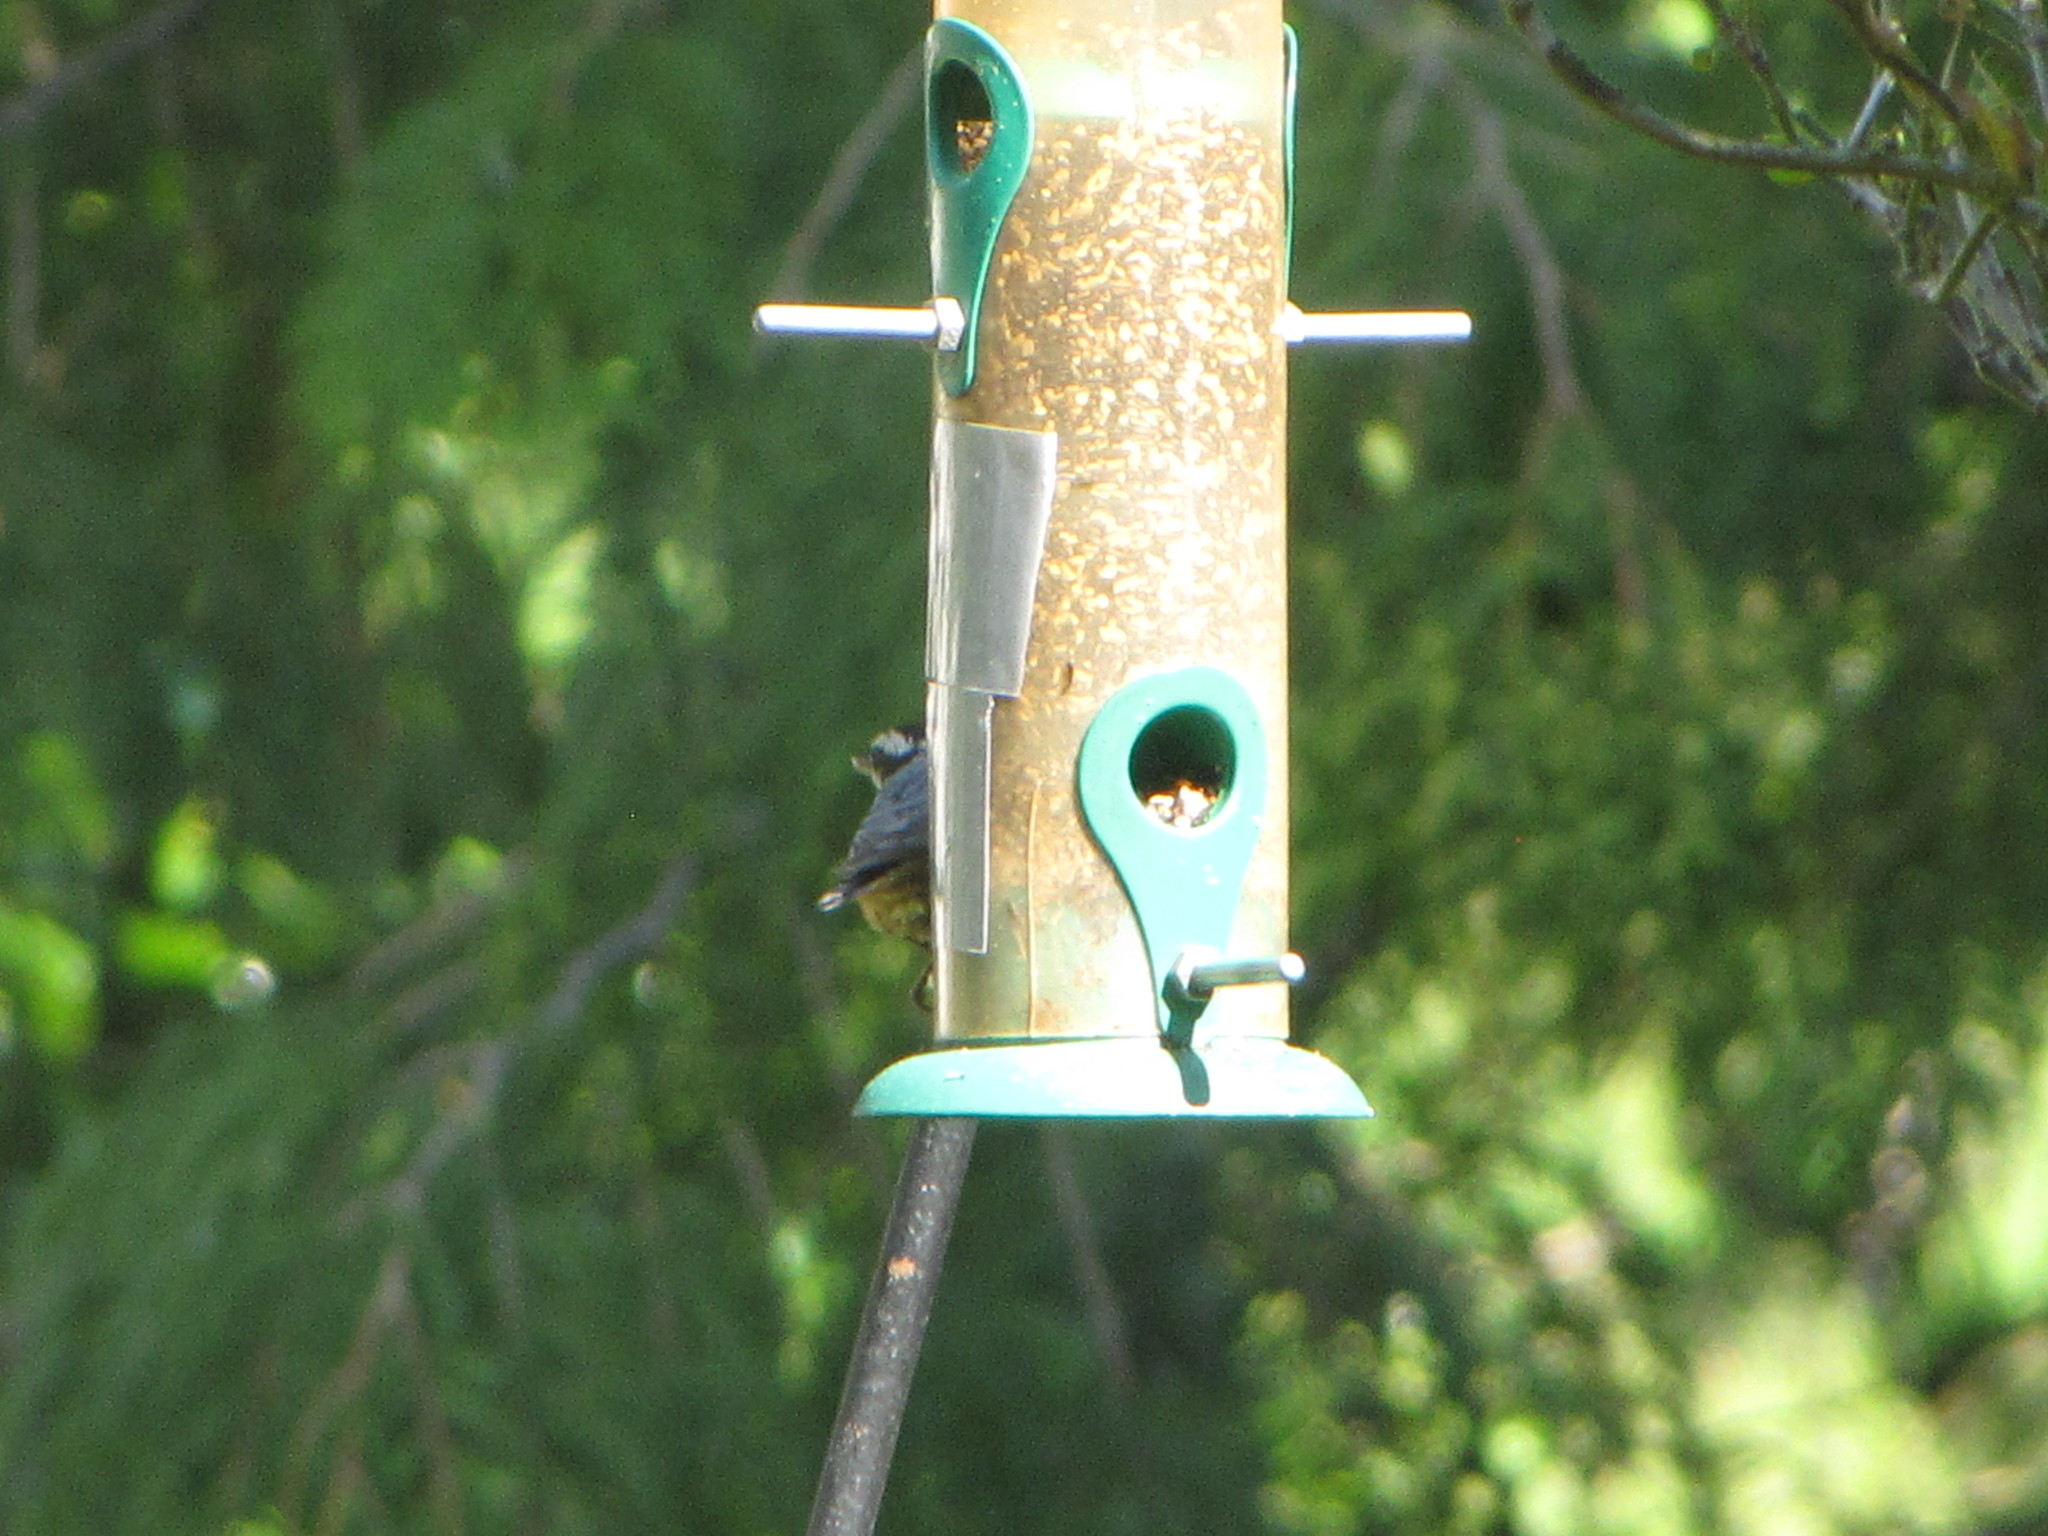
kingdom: Animalia
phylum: Chordata
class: Aves
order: Passeriformes
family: Sittidae
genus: Sitta
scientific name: Sitta canadensis
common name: Red-breasted nuthatch
